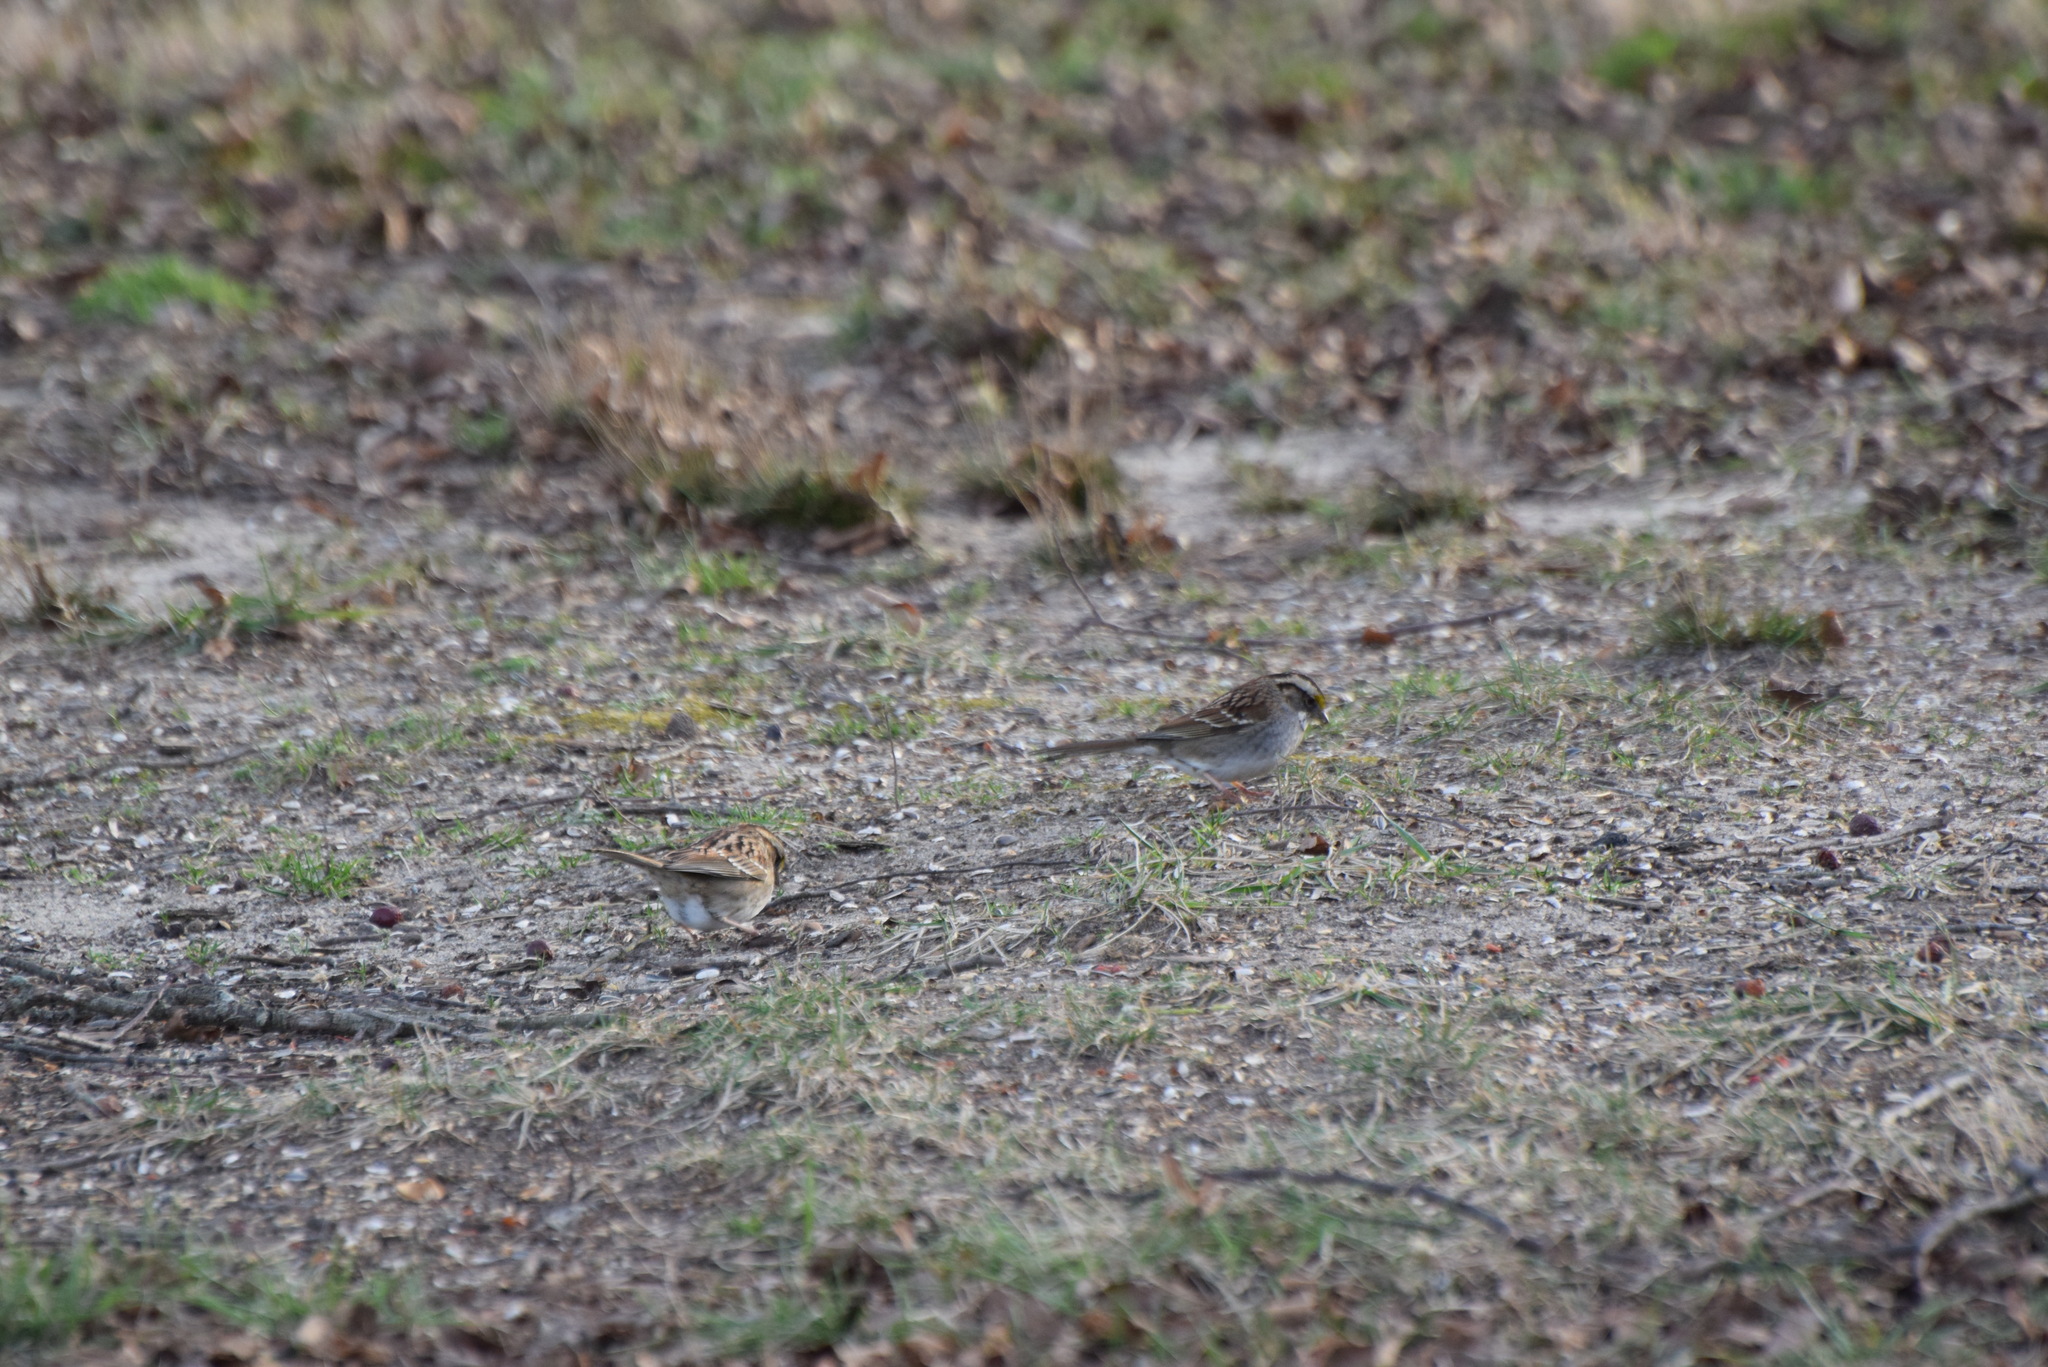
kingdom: Animalia
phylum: Chordata
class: Aves
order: Passeriformes
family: Passerellidae
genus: Zonotrichia
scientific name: Zonotrichia albicollis
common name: White-throated sparrow
